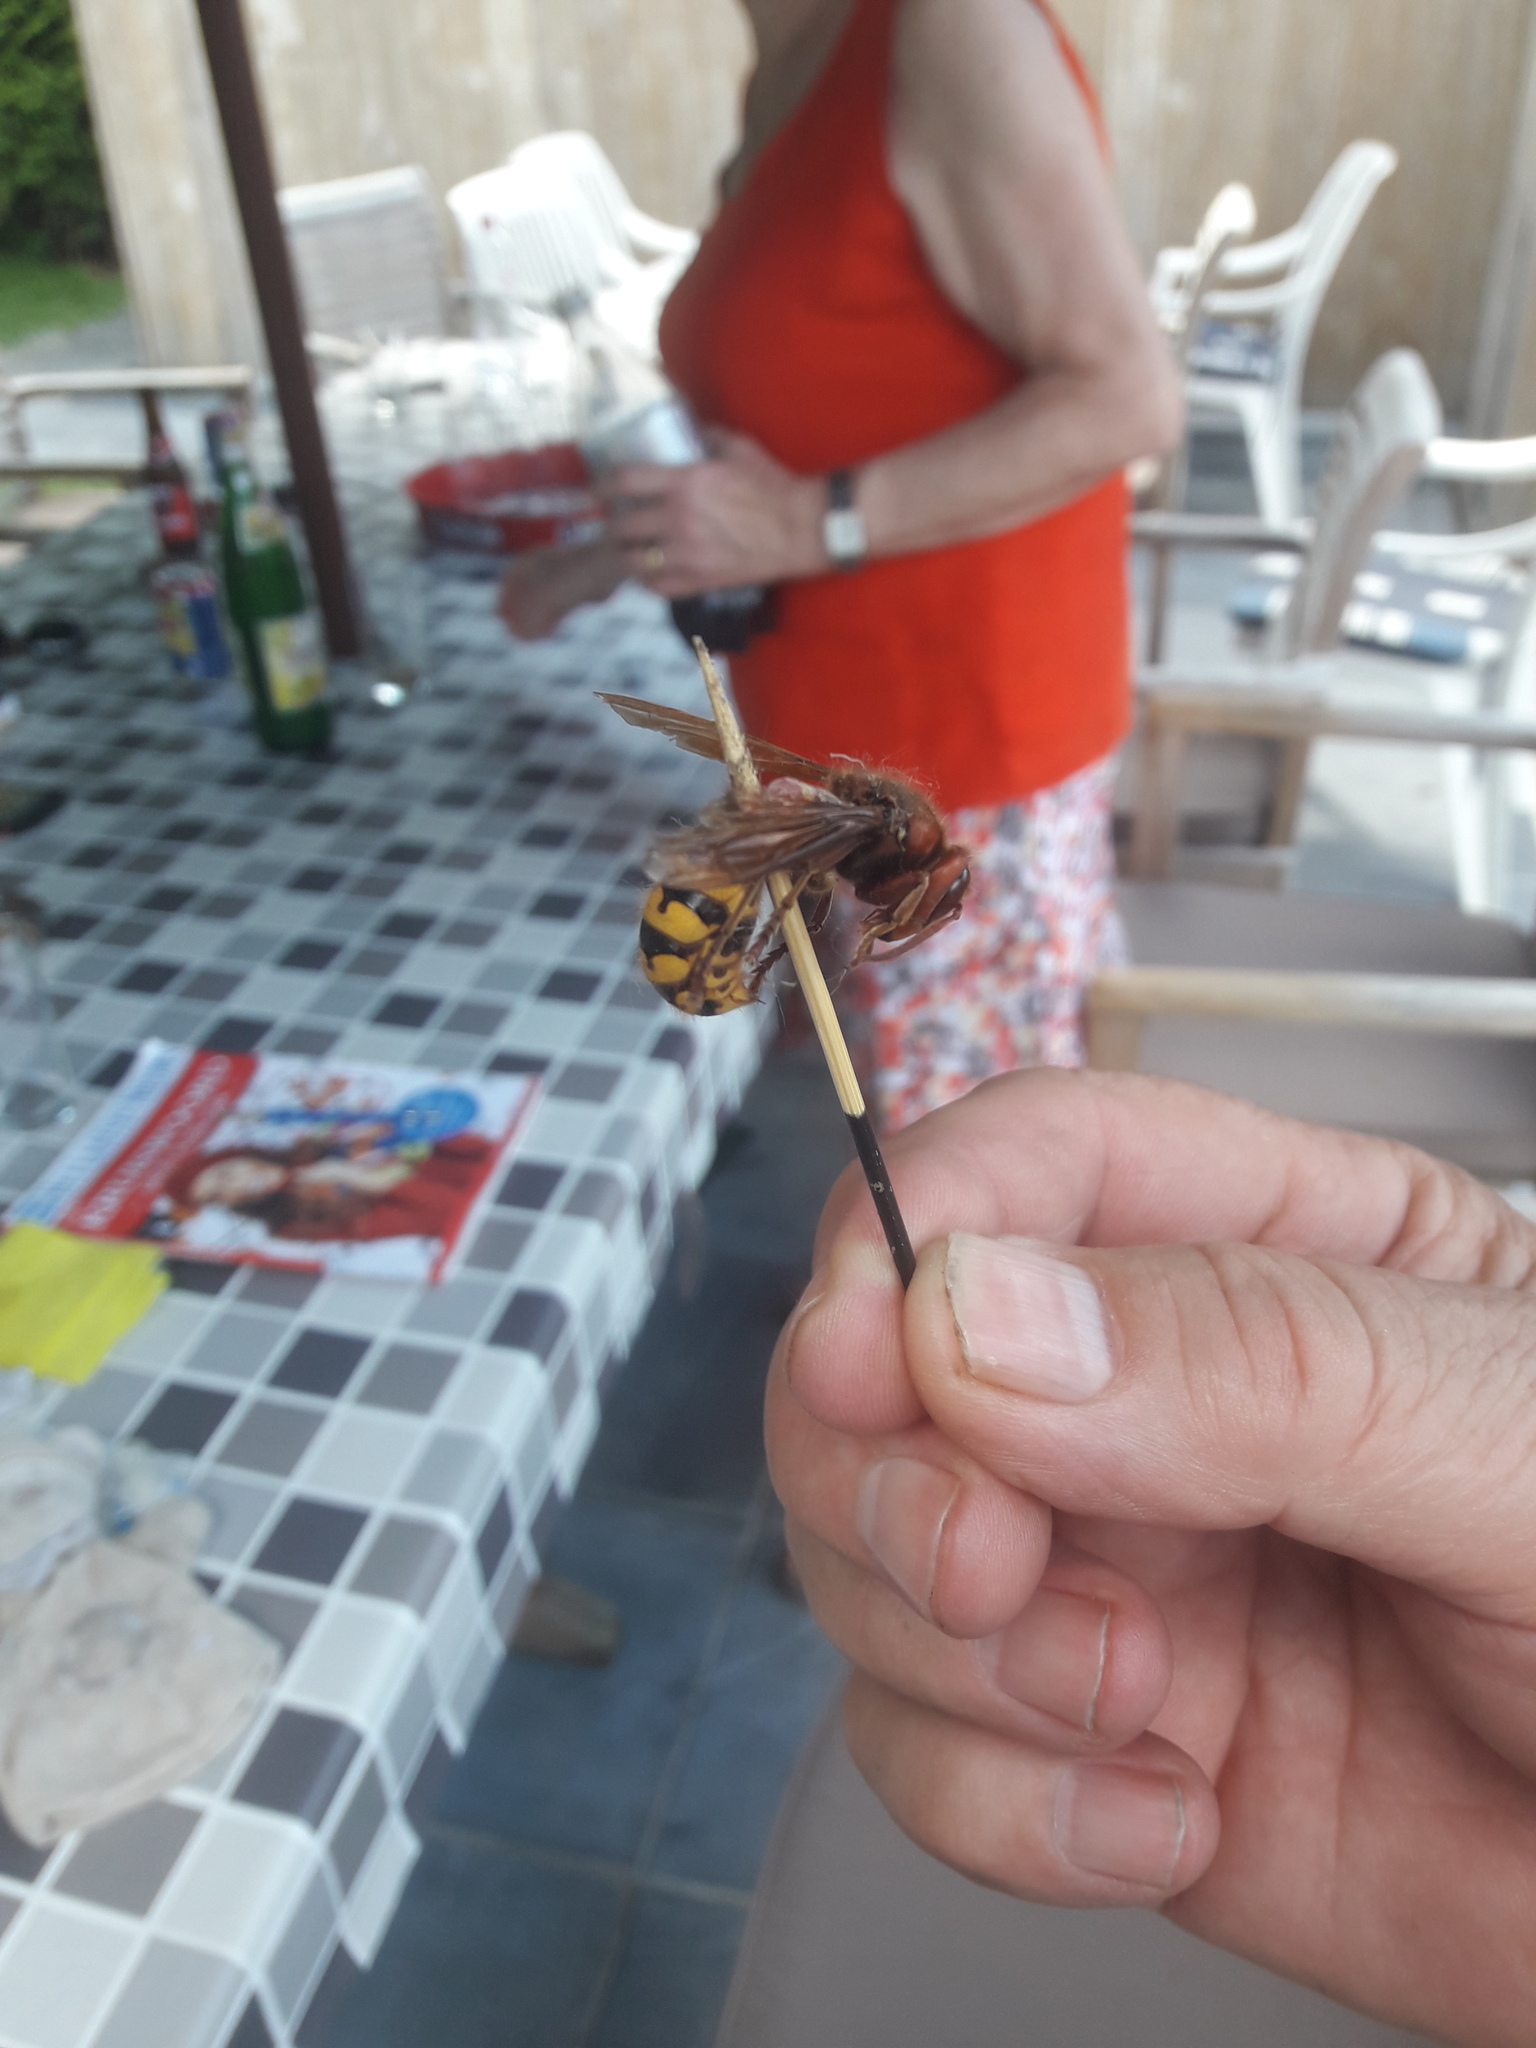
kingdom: Animalia
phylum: Arthropoda
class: Insecta
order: Hymenoptera
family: Vespidae
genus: Vespa
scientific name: Vespa crabro
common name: Hornet
